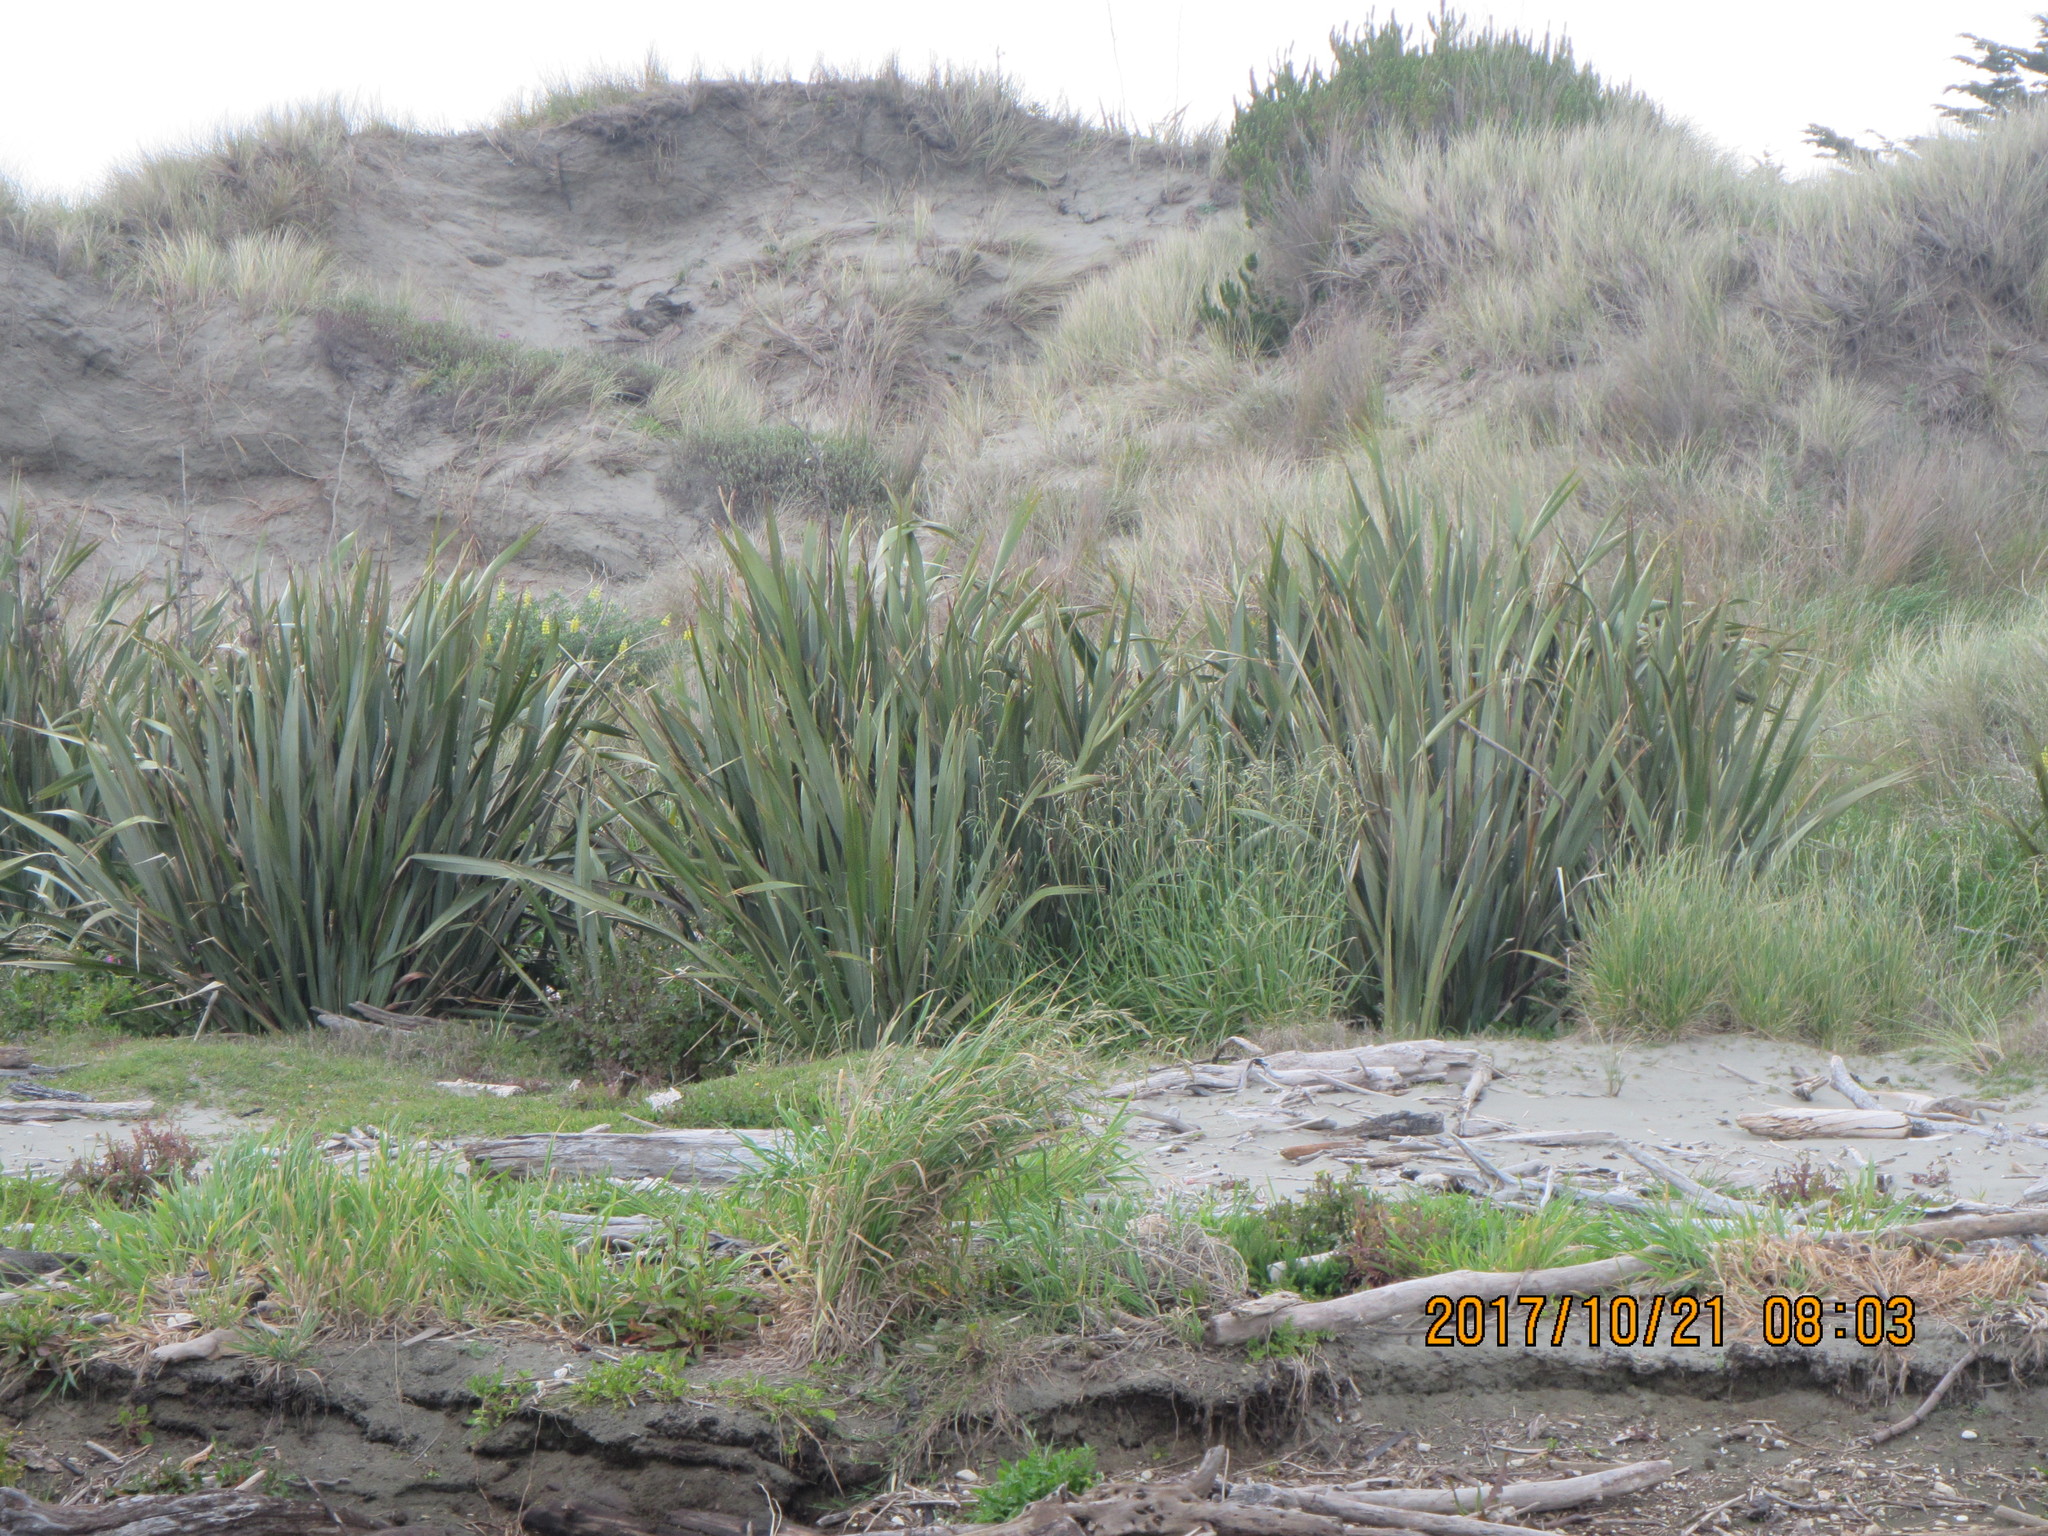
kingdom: Plantae
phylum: Tracheophyta
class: Liliopsida
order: Asparagales
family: Asphodelaceae
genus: Phormium
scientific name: Phormium tenax
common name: New zealand flax
